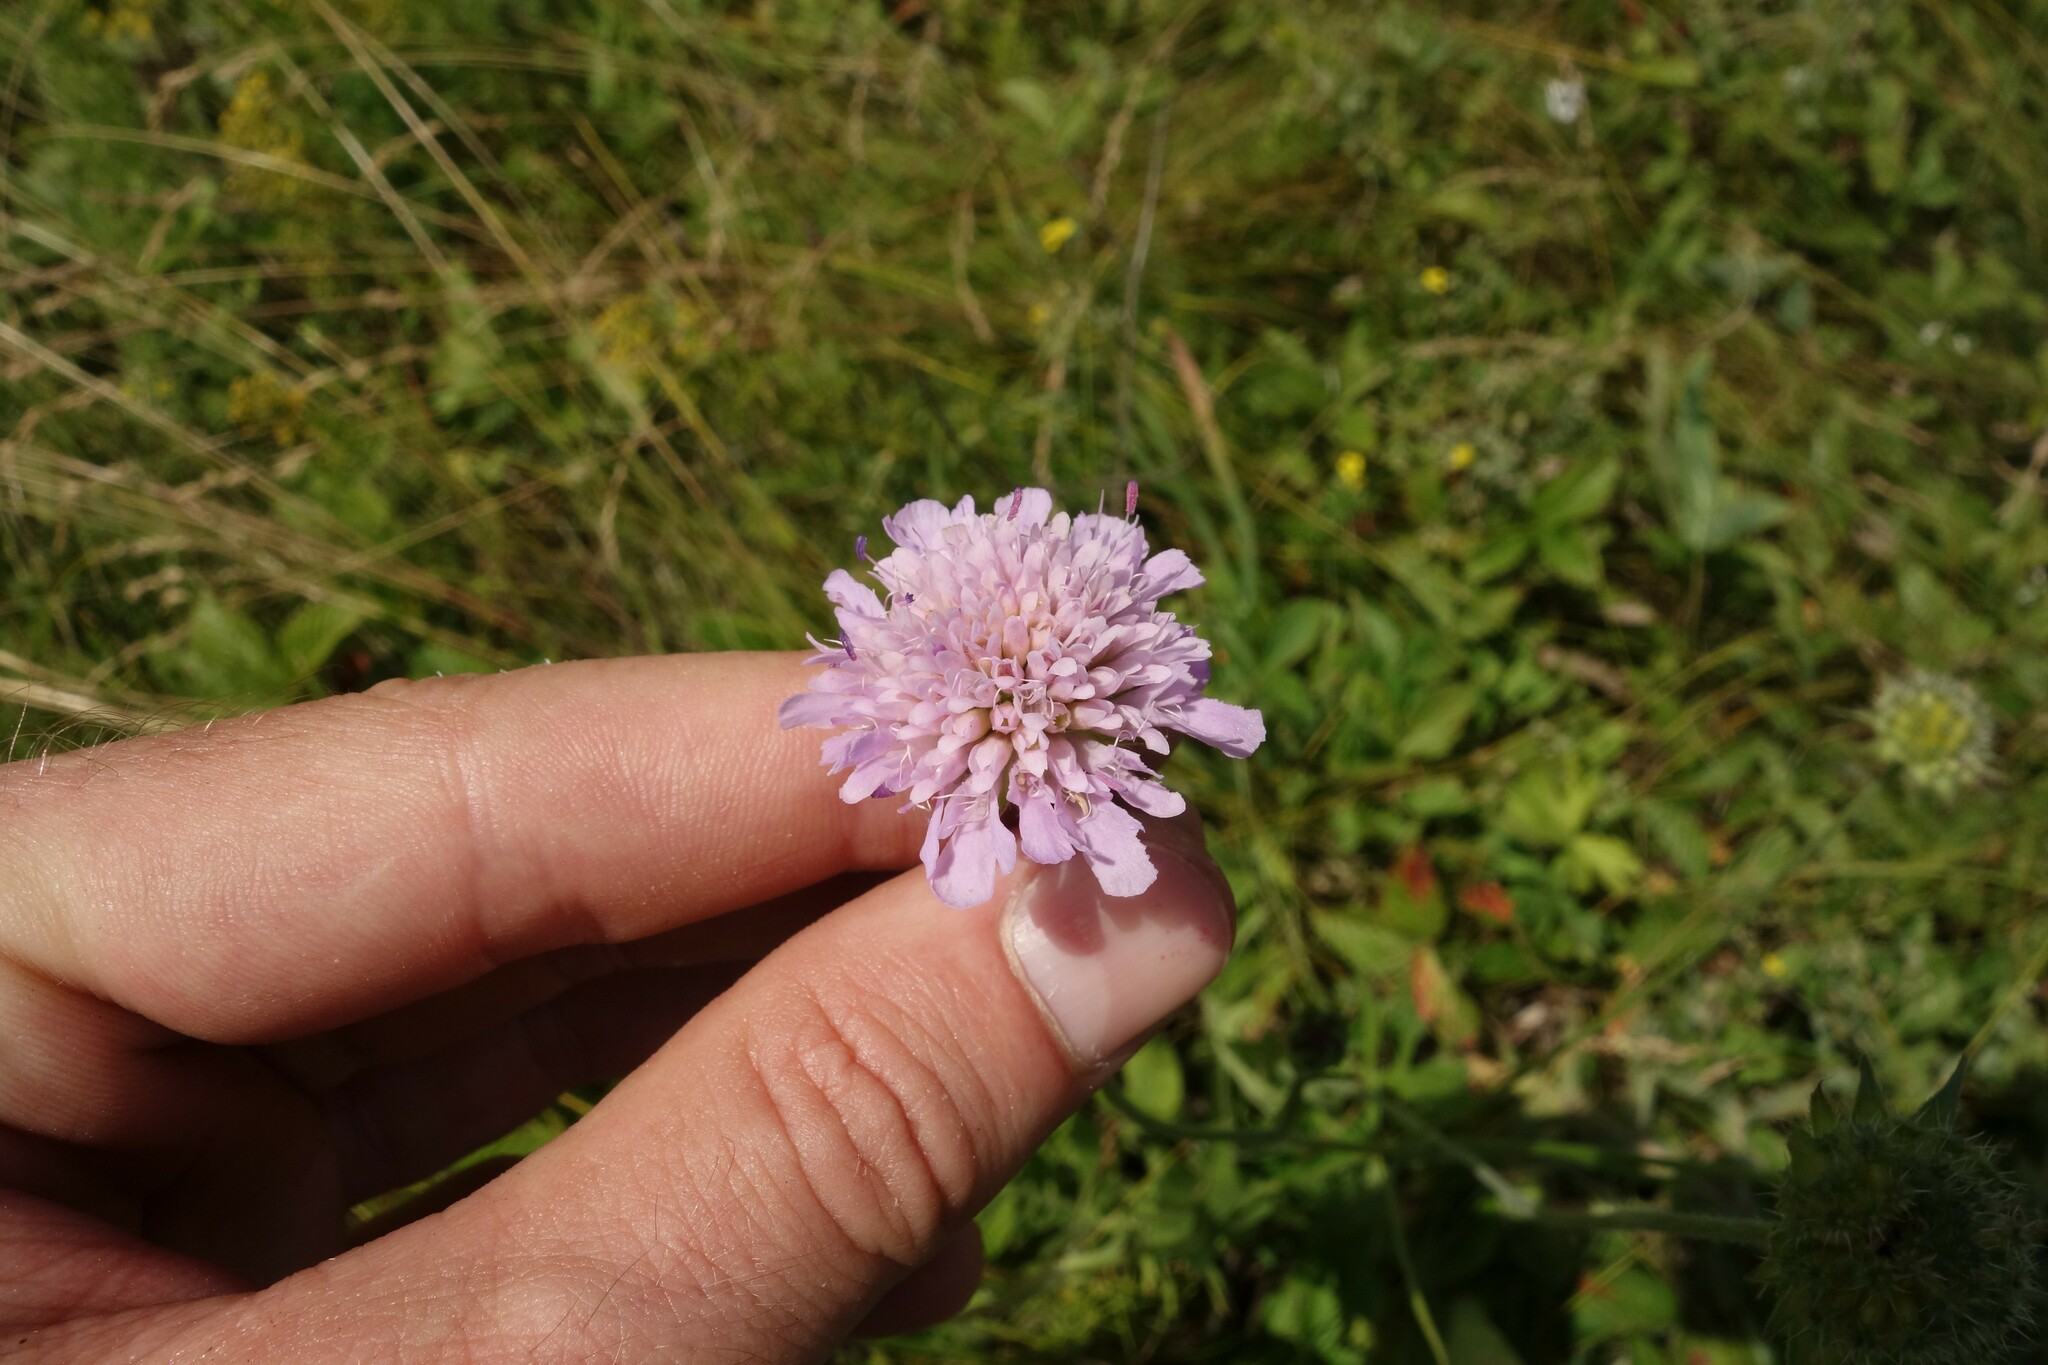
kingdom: Plantae
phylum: Tracheophyta
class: Magnoliopsida
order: Dipsacales
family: Caprifoliaceae
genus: Knautia
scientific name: Knautia arvensis
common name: Field scabiosa
